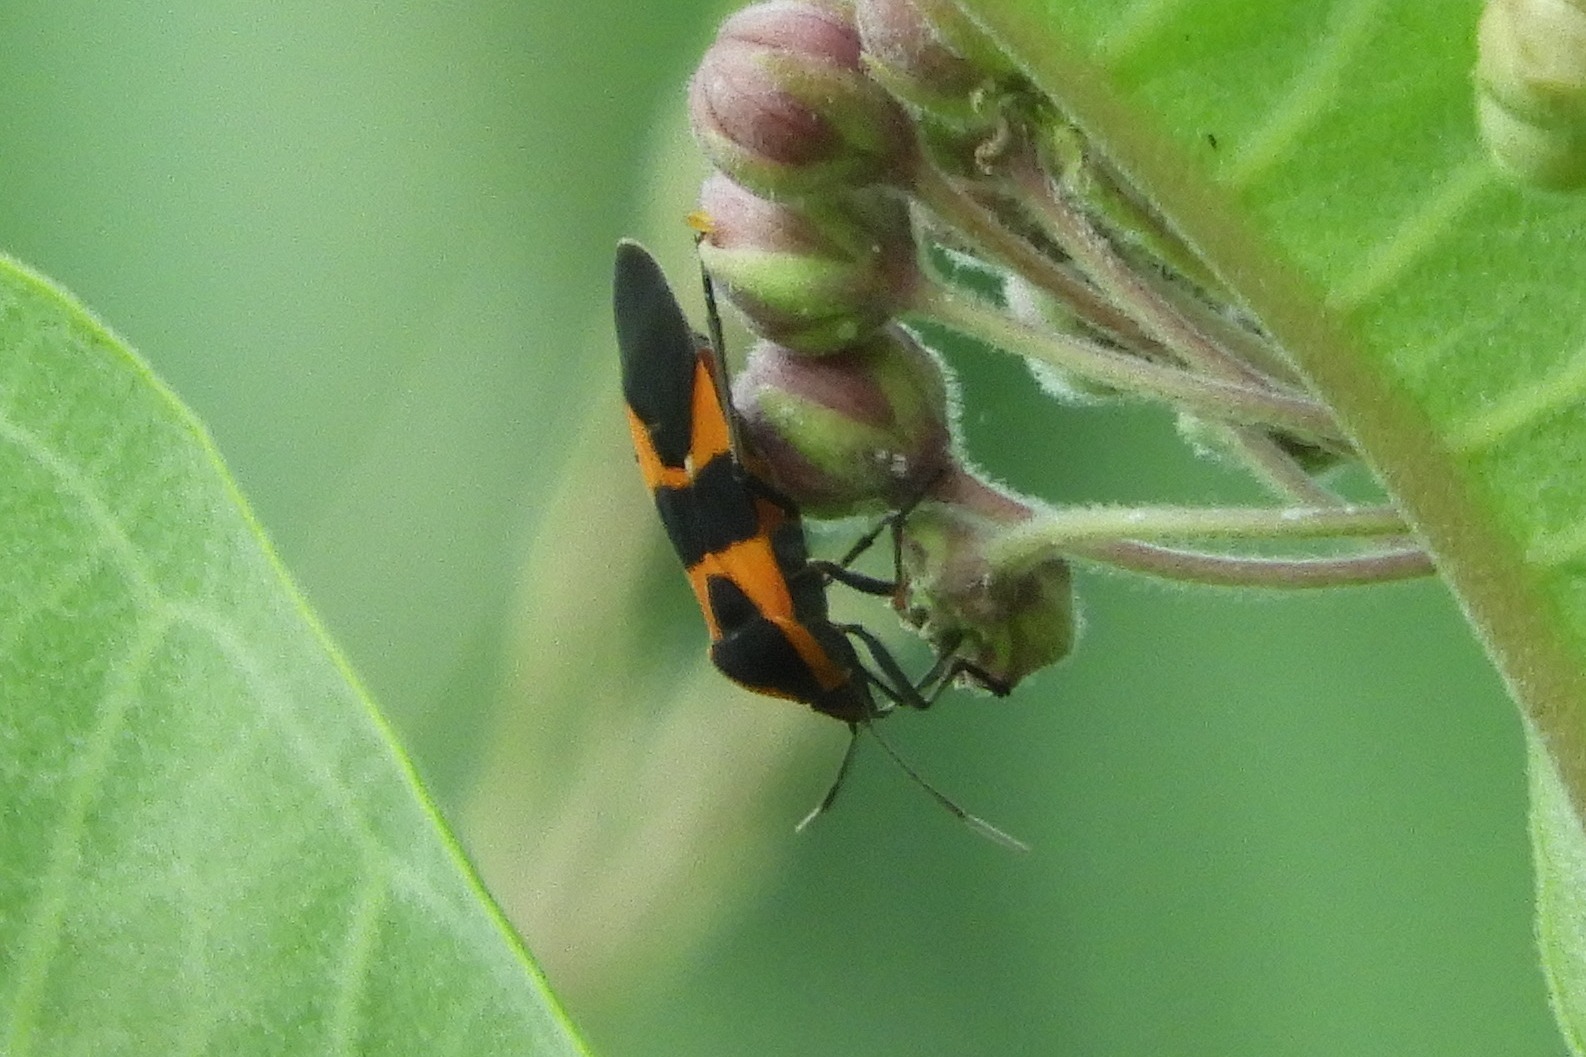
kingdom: Animalia
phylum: Arthropoda
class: Insecta
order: Hemiptera
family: Lygaeidae
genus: Oncopeltus
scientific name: Oncopeltus fasciatus
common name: Large milkweed bug
